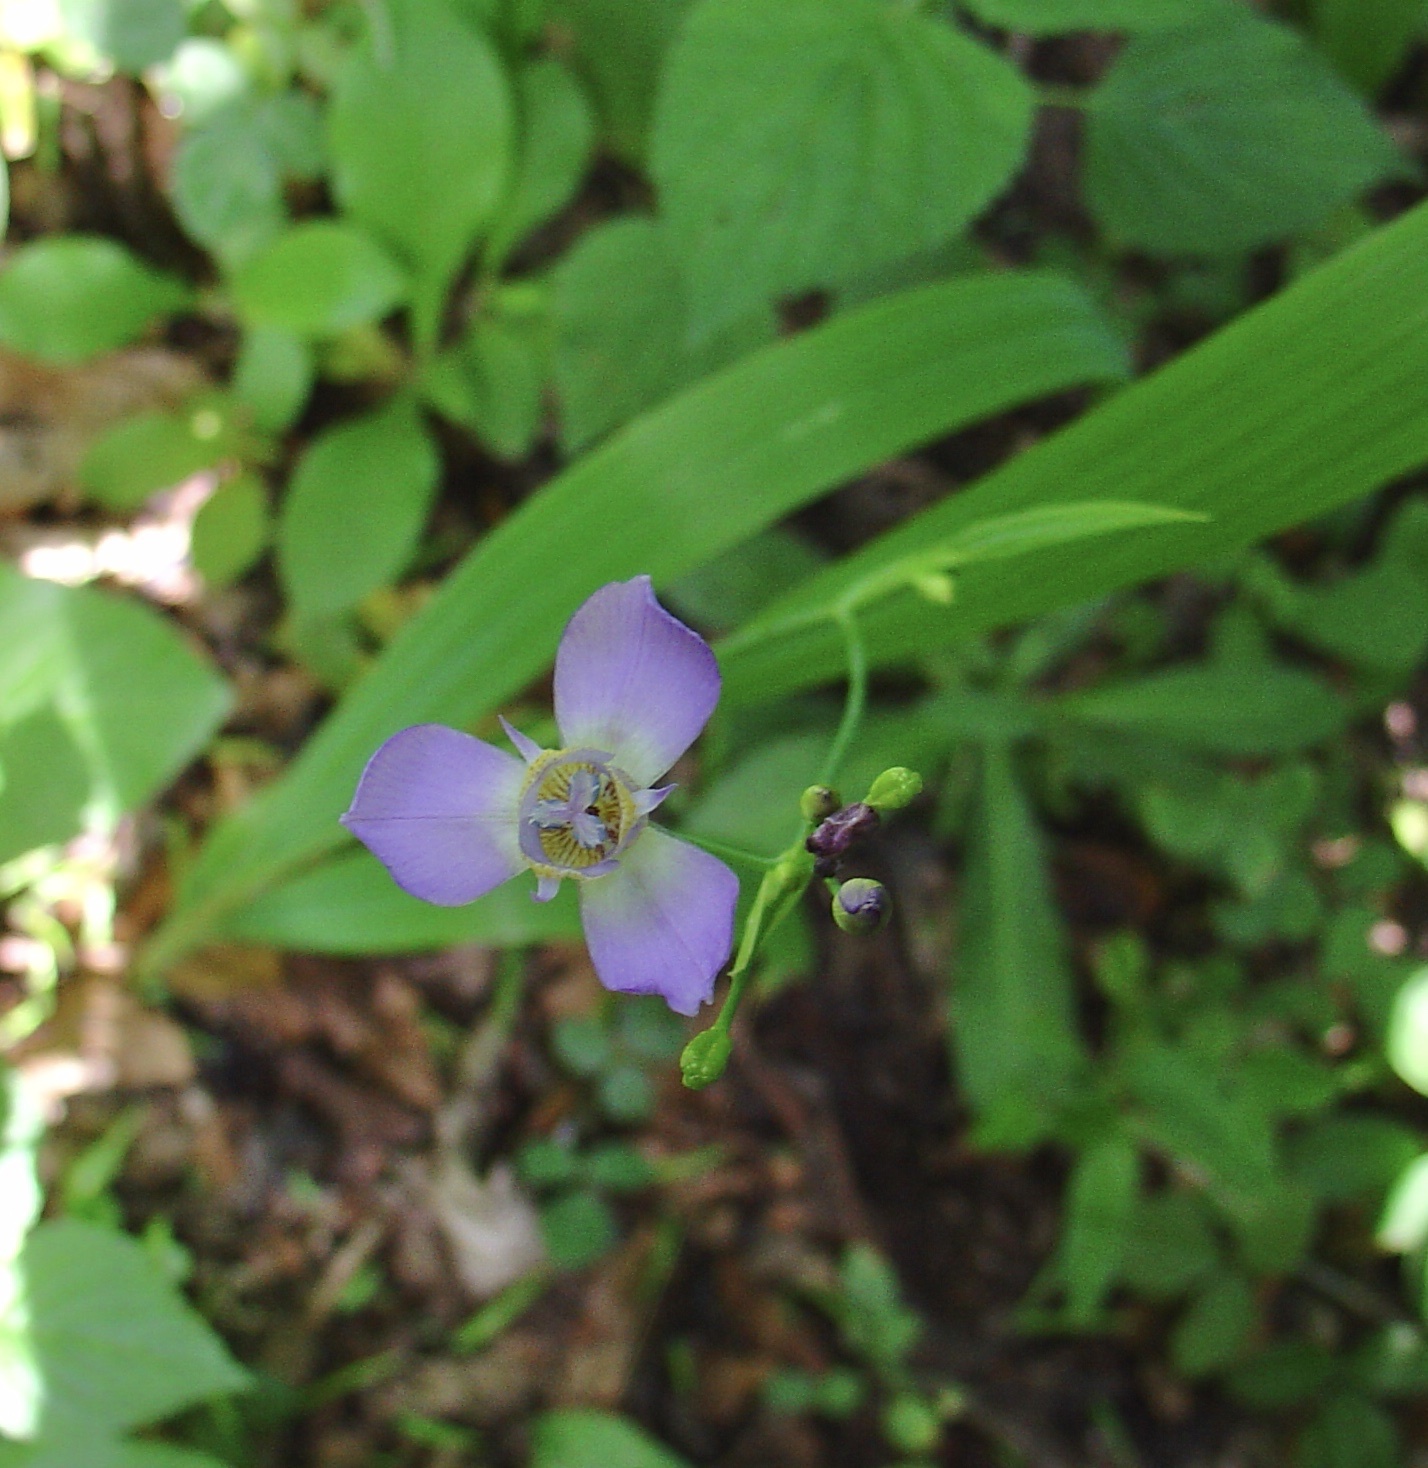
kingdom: Plantae
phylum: Tracheophyta
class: Liliopsida
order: Asparagales
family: Iridaceae
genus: Ennealophus
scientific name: Ennealophus euryandrus
